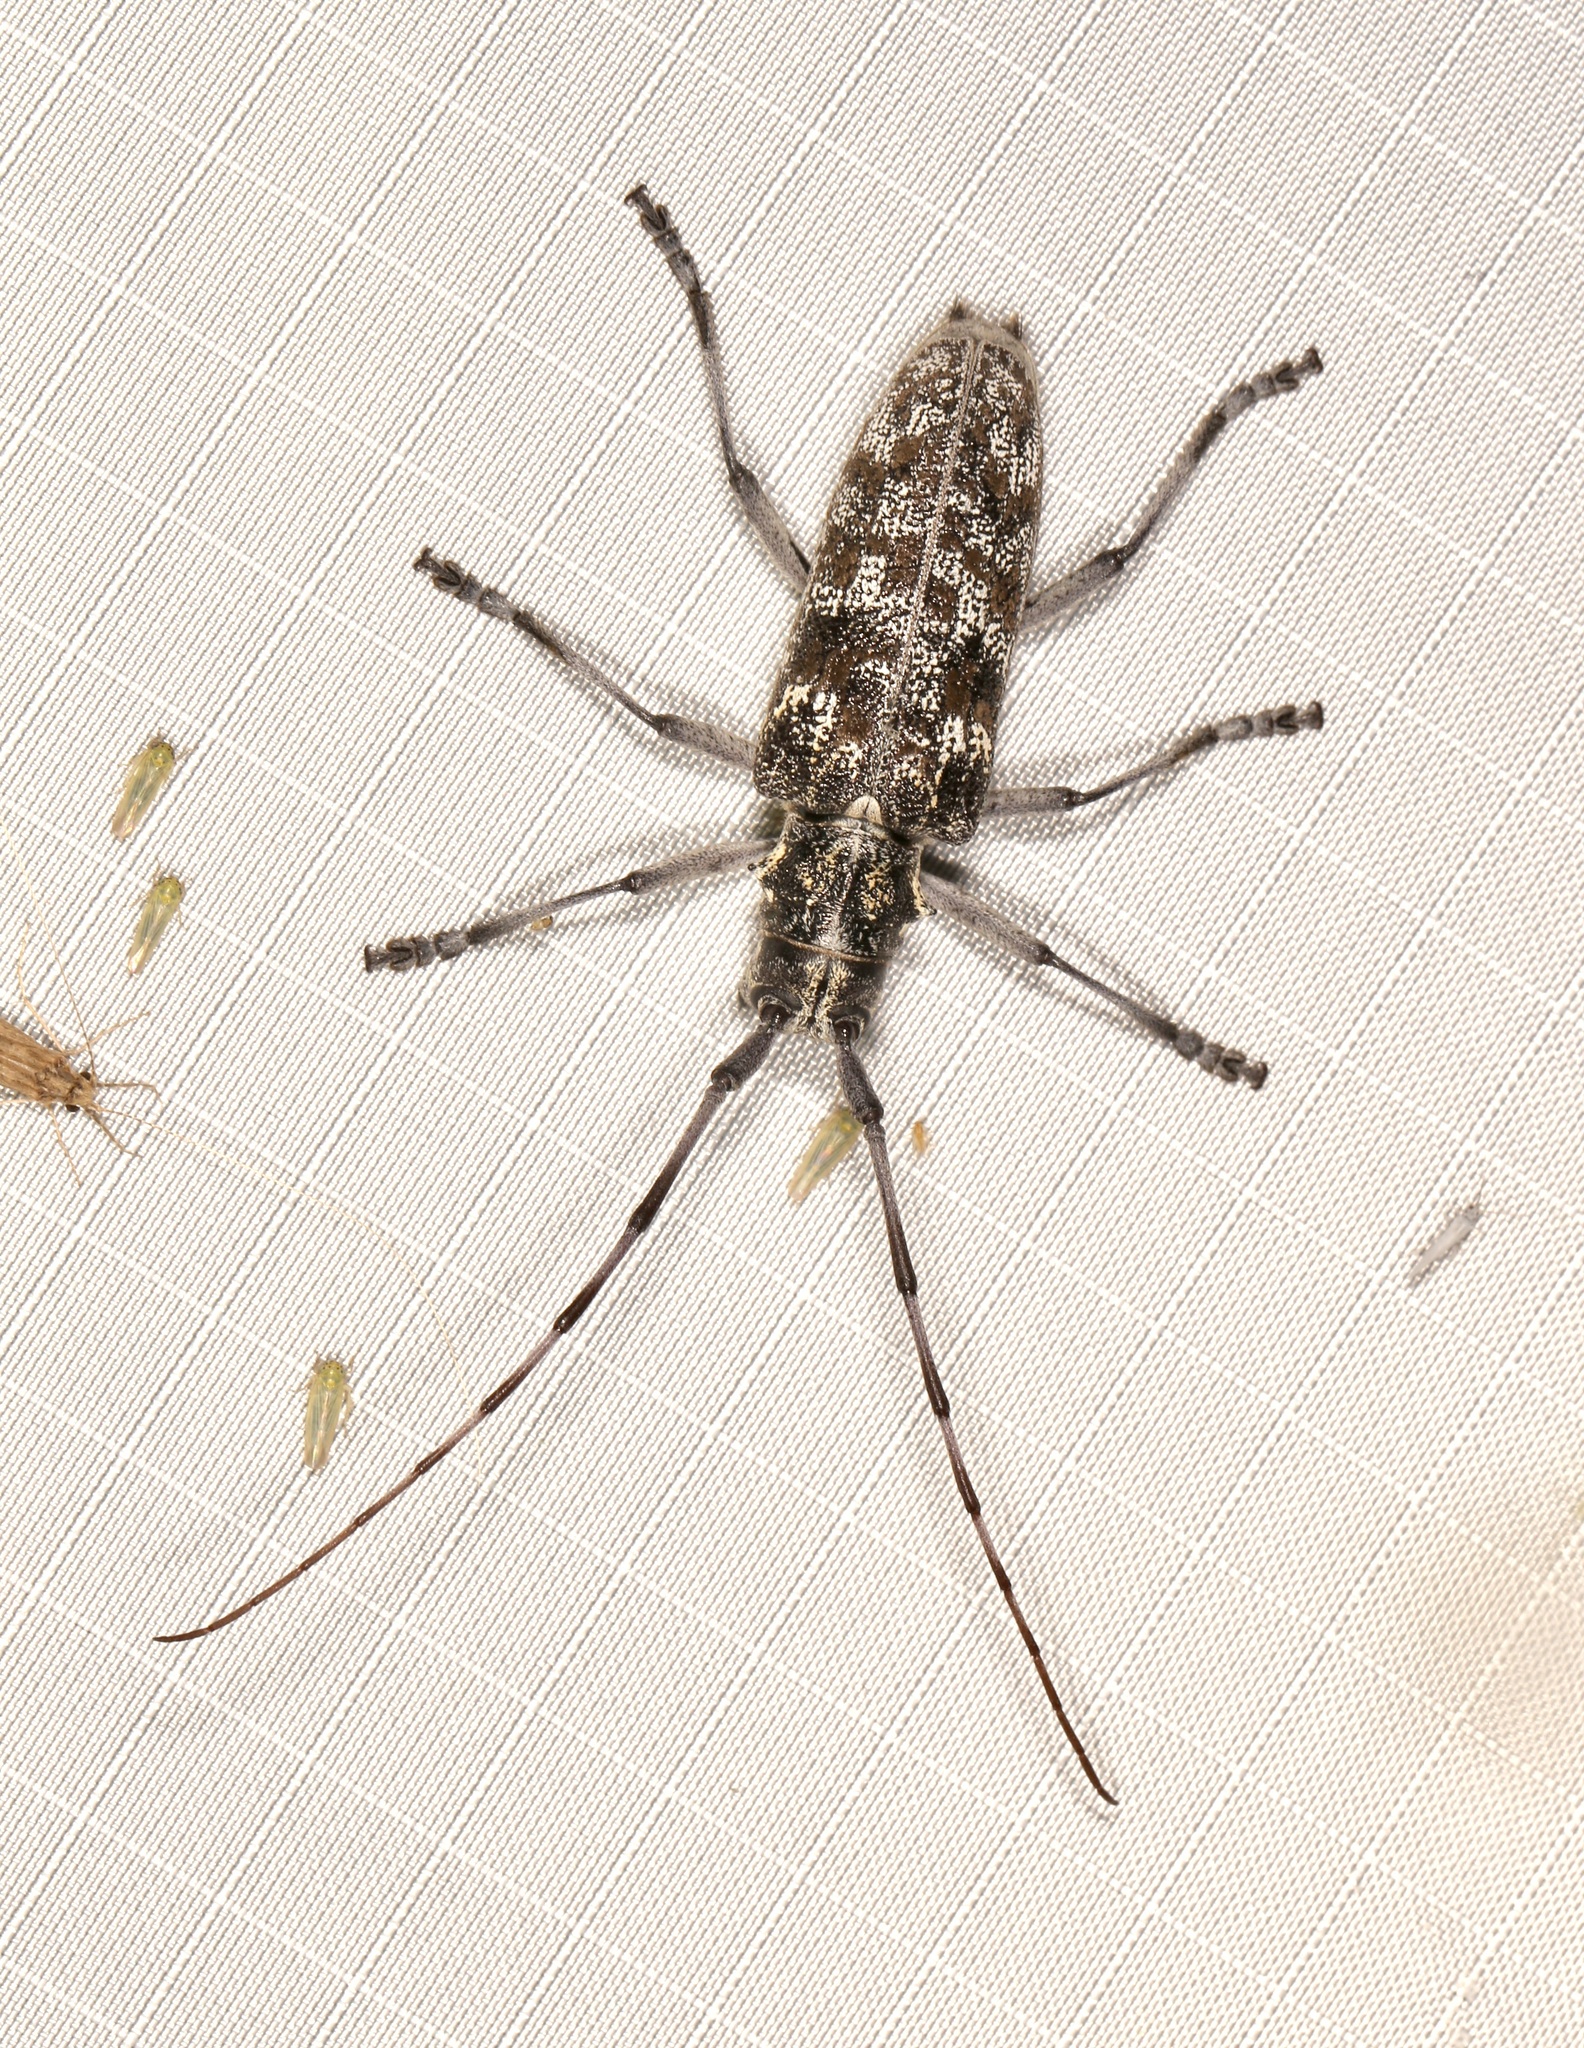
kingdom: Animalia
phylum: Arthropoda
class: Insecta
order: Coleoptera
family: Cerambycidae
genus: Monochamus
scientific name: Monochamus clamator
